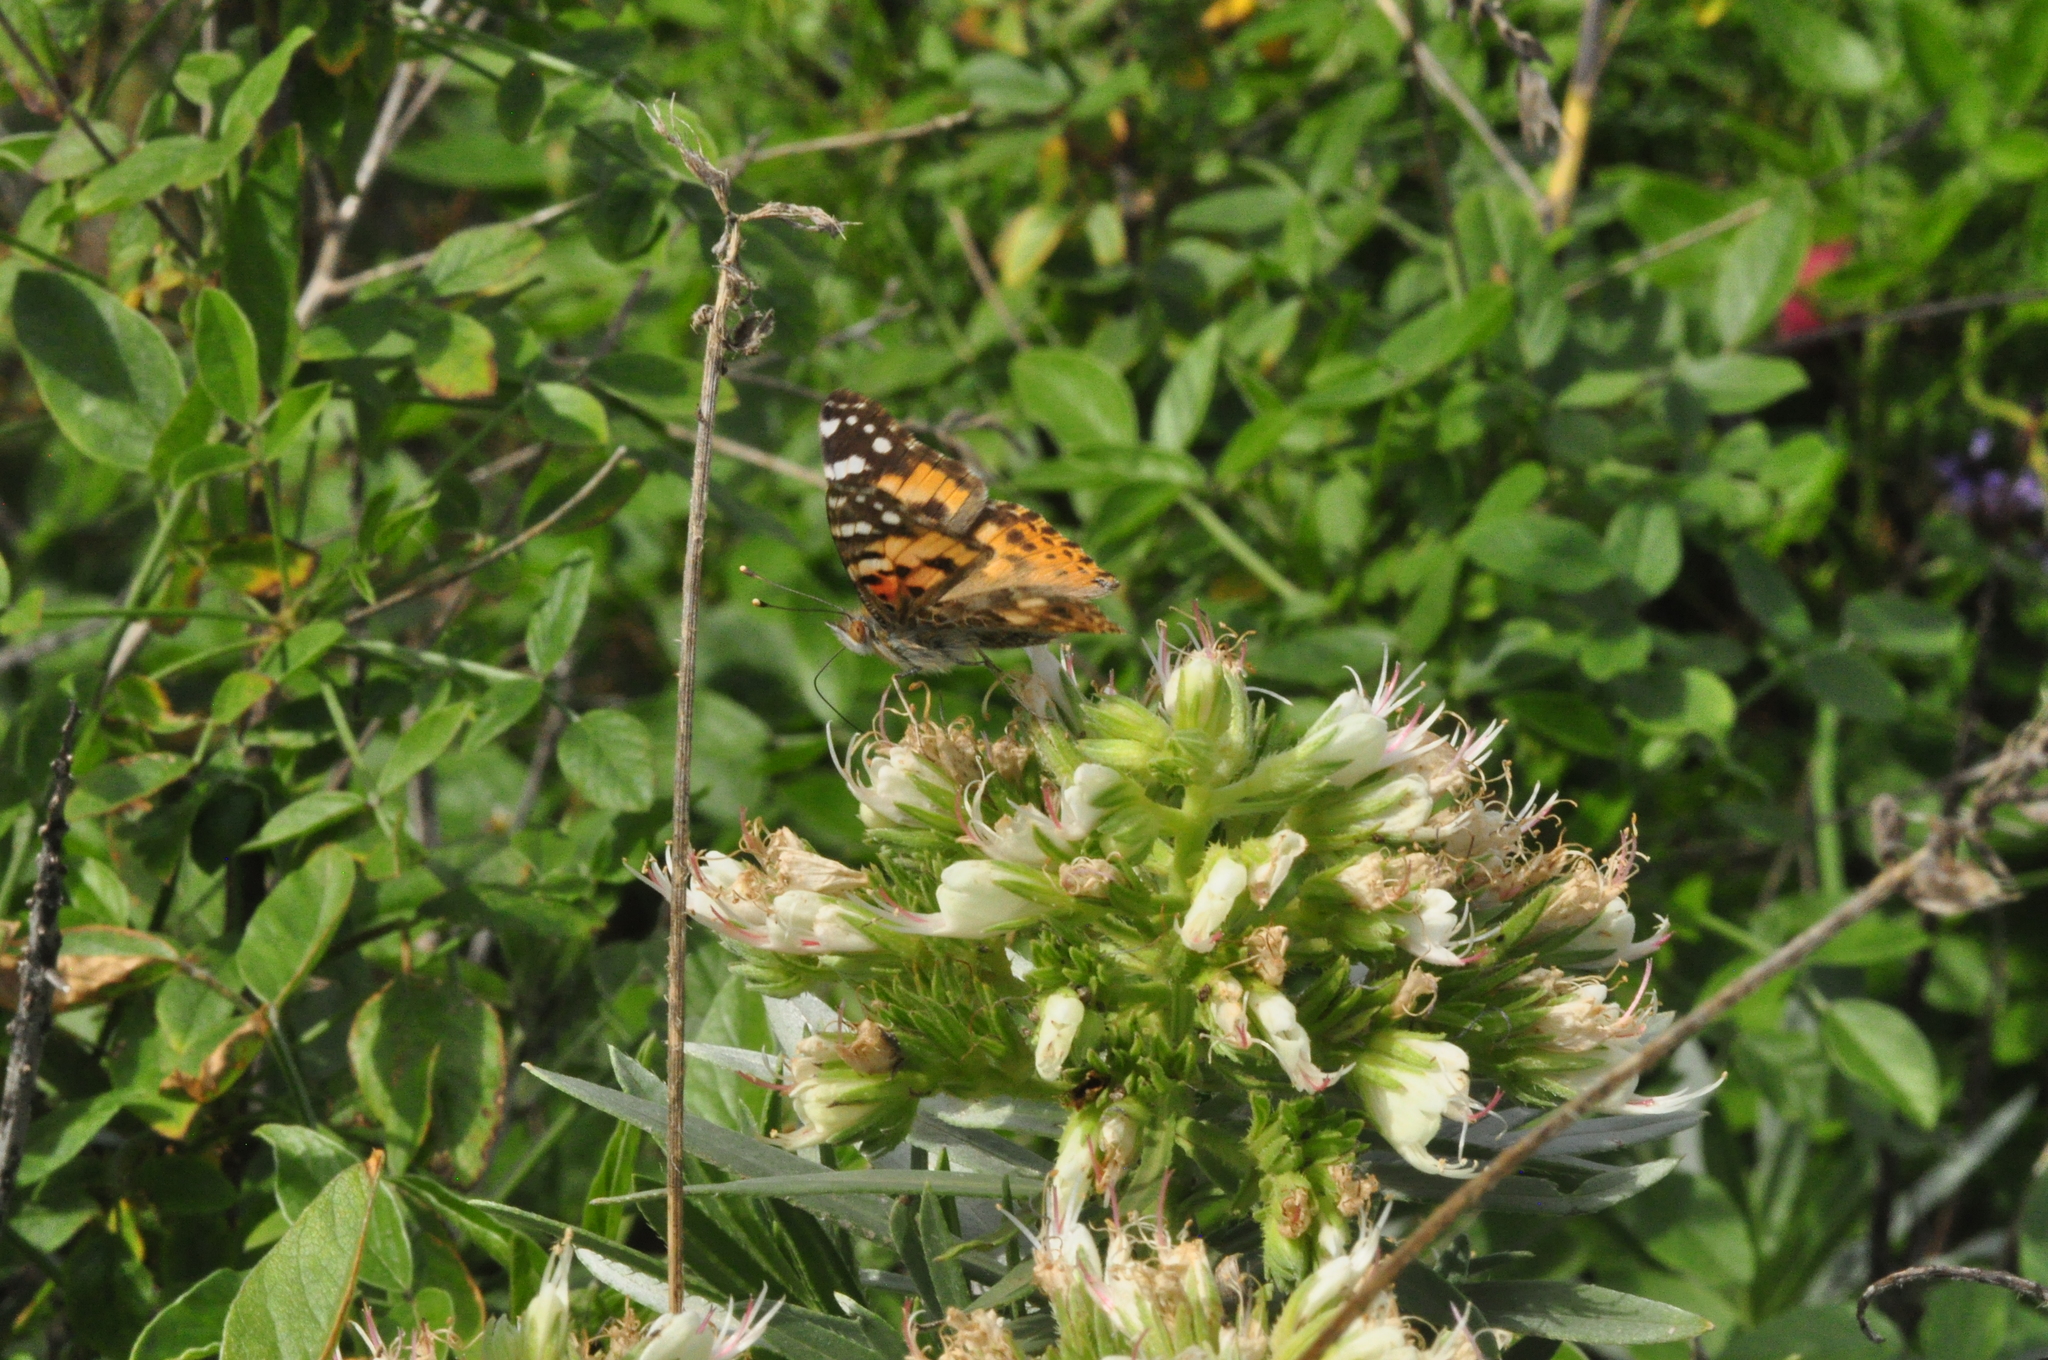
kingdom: Animalia
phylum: Arthropoda
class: Insecta
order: Lepidoptera
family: Nymphalidae
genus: Vanessa
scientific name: Vanessa cardui
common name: Painted lady
